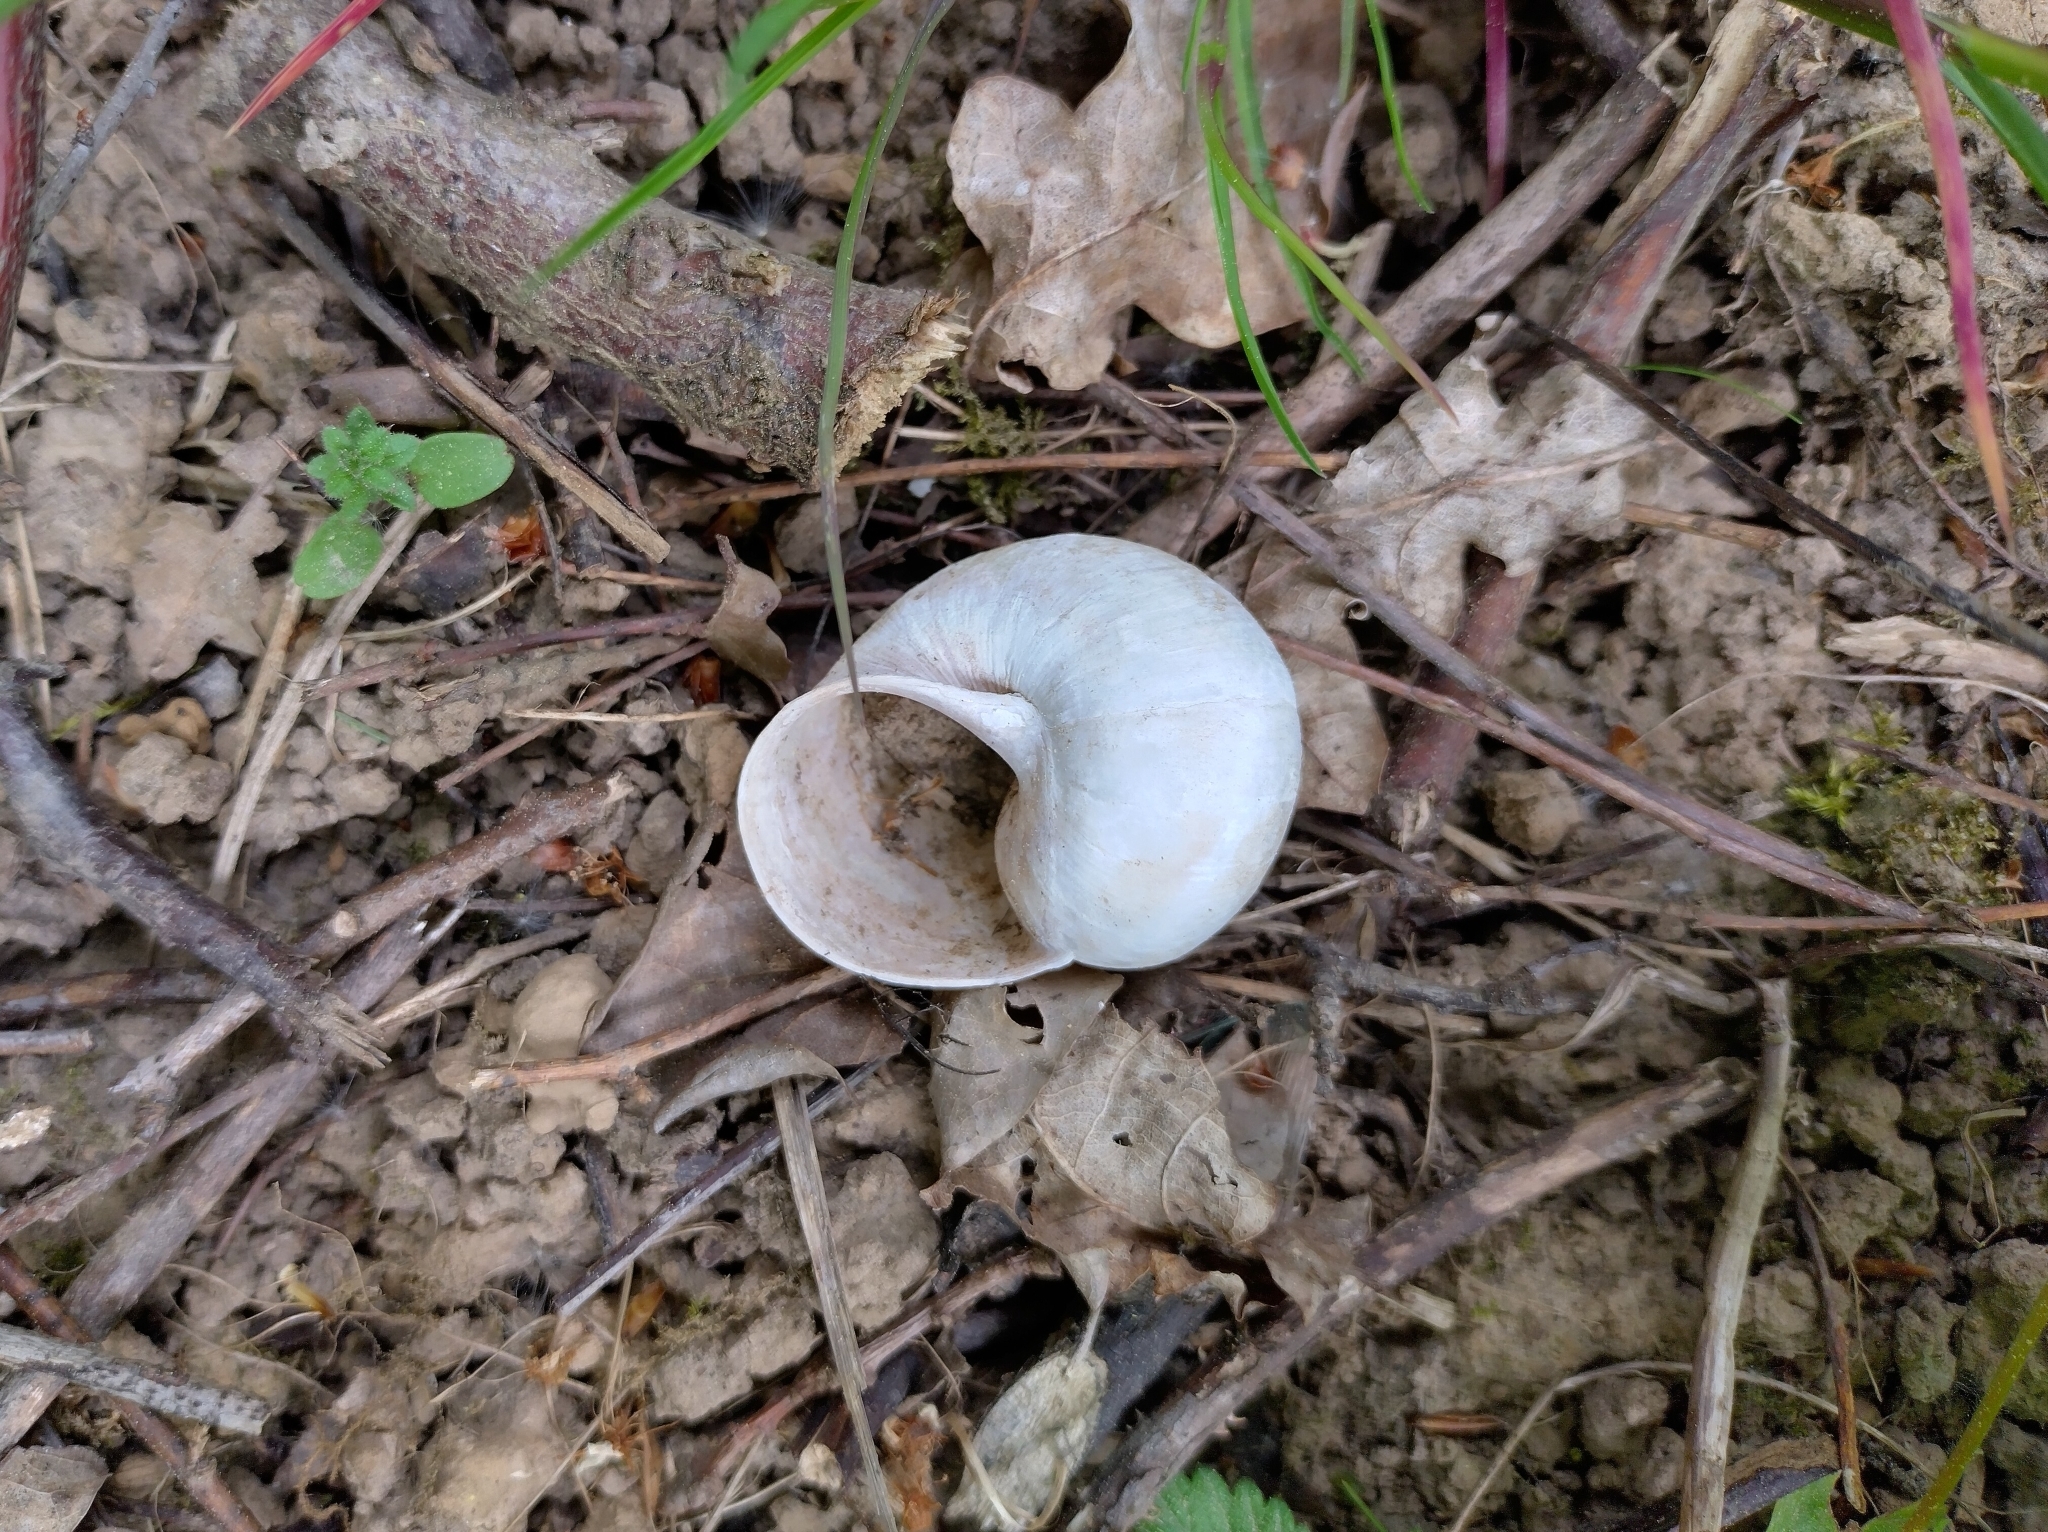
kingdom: Animalia
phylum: Mollusca
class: Gastropoda
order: Stylommatophora
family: Helicidae
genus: Helix
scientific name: Helix pomatia
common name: Roman snail
